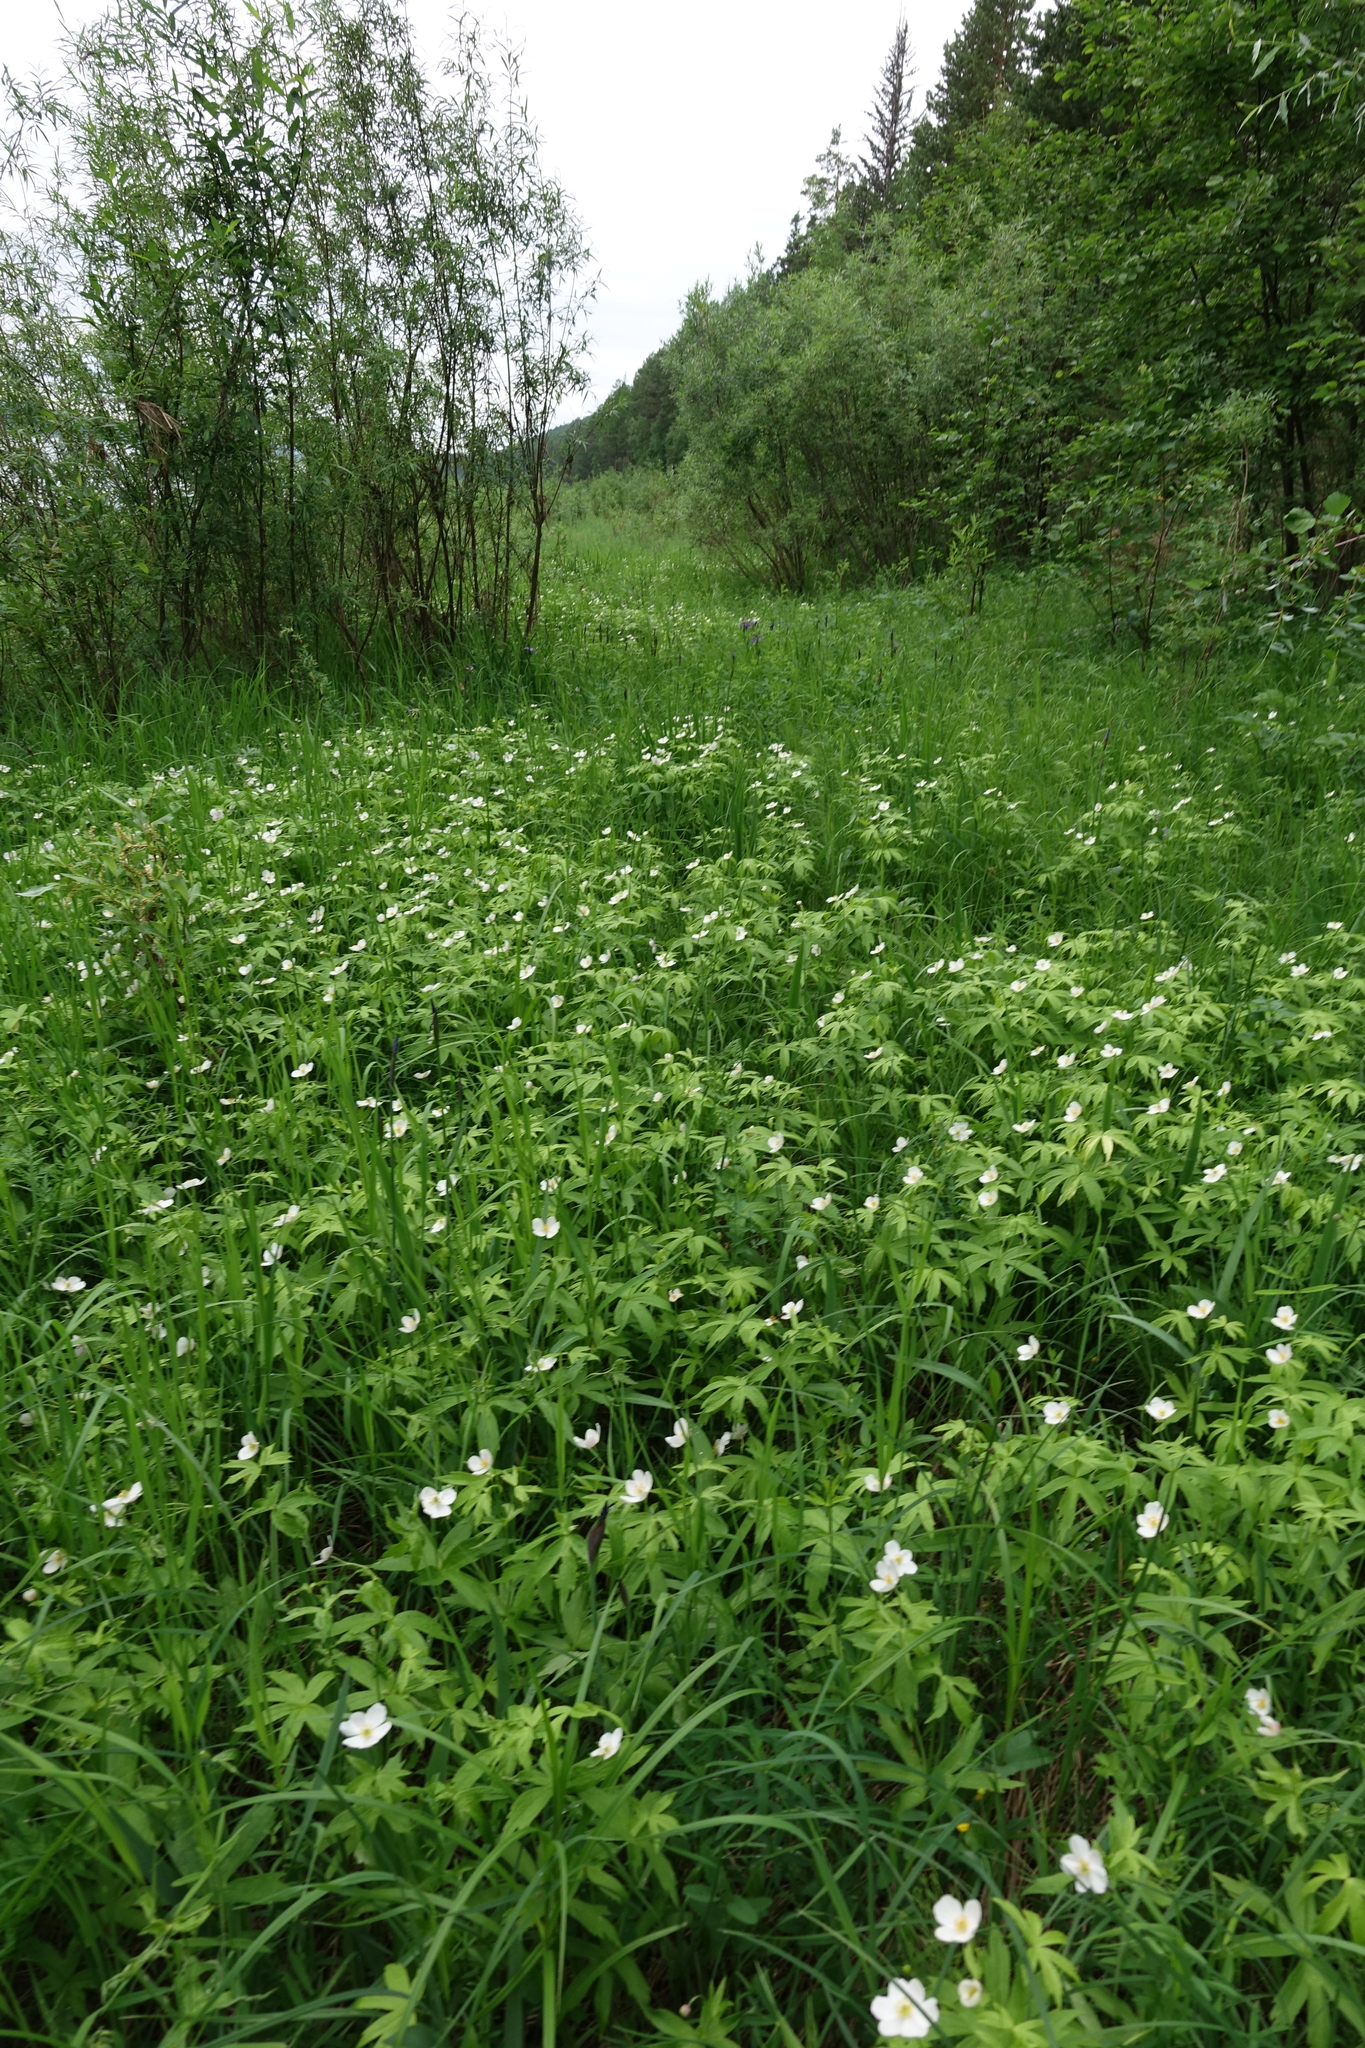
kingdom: Plantae
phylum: Tracheophyta
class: Magnoliopsida
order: Ranunculales
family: Ranunculaceae
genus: Anemonastrum
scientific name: Anemonastrum dichotomum
